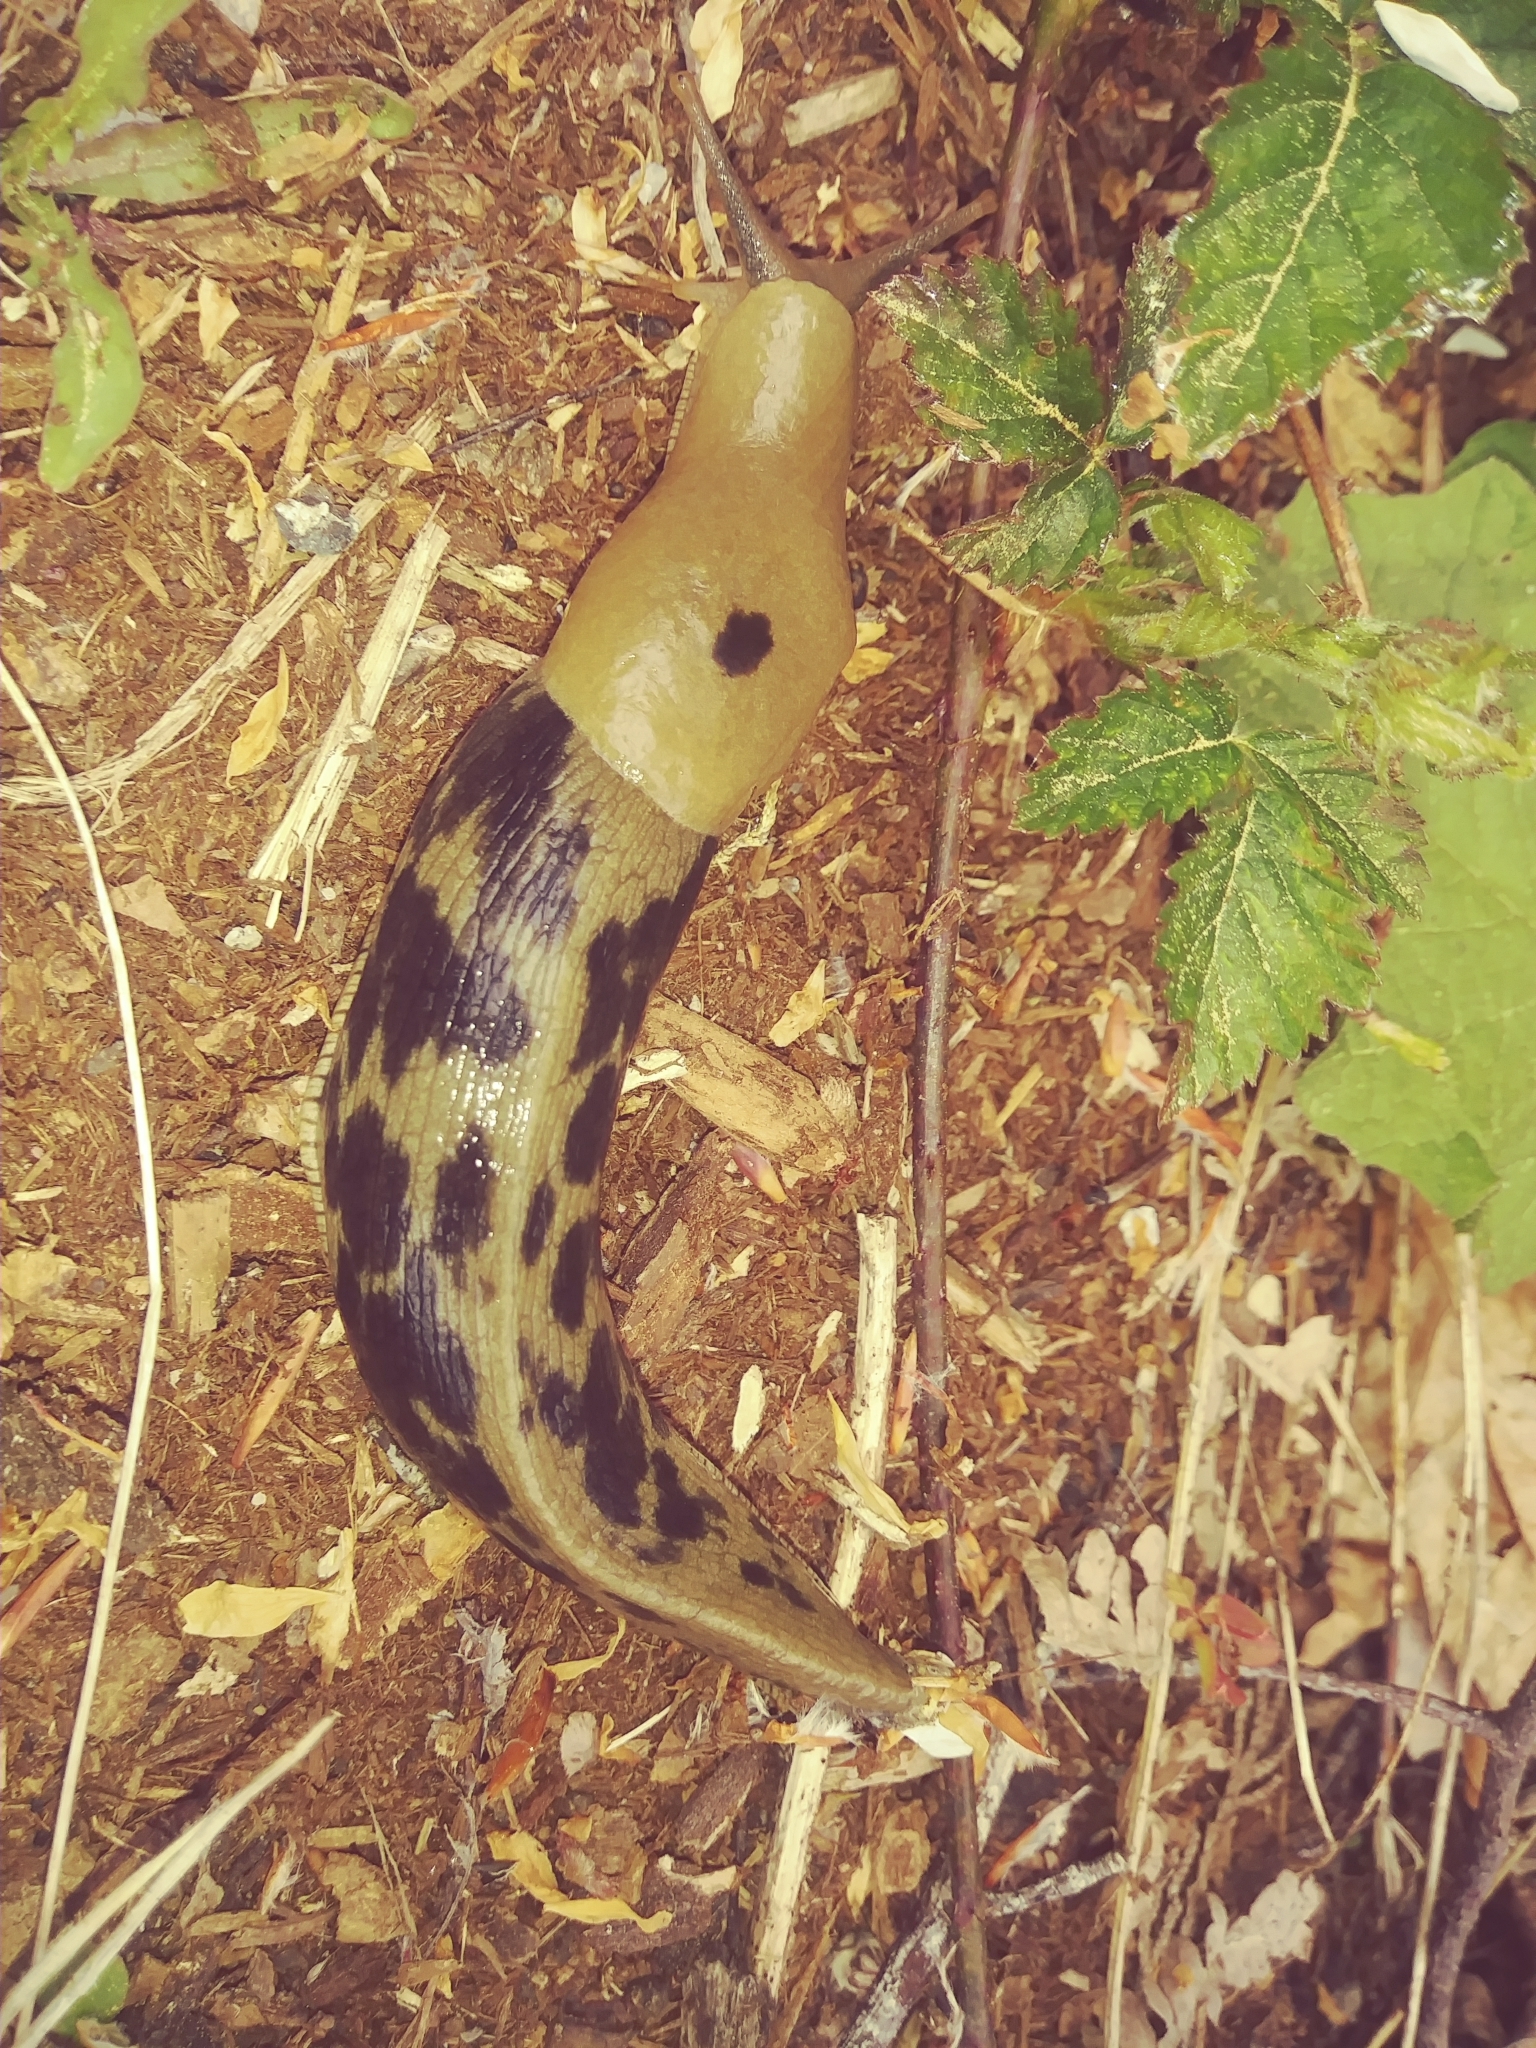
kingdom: Animalia
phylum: Mollusca
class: Gastropoda
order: Stylommatophora
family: Ariolimacidae
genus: Ariolimax
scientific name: Ariolimax columbianus
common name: Pacific banana slug
